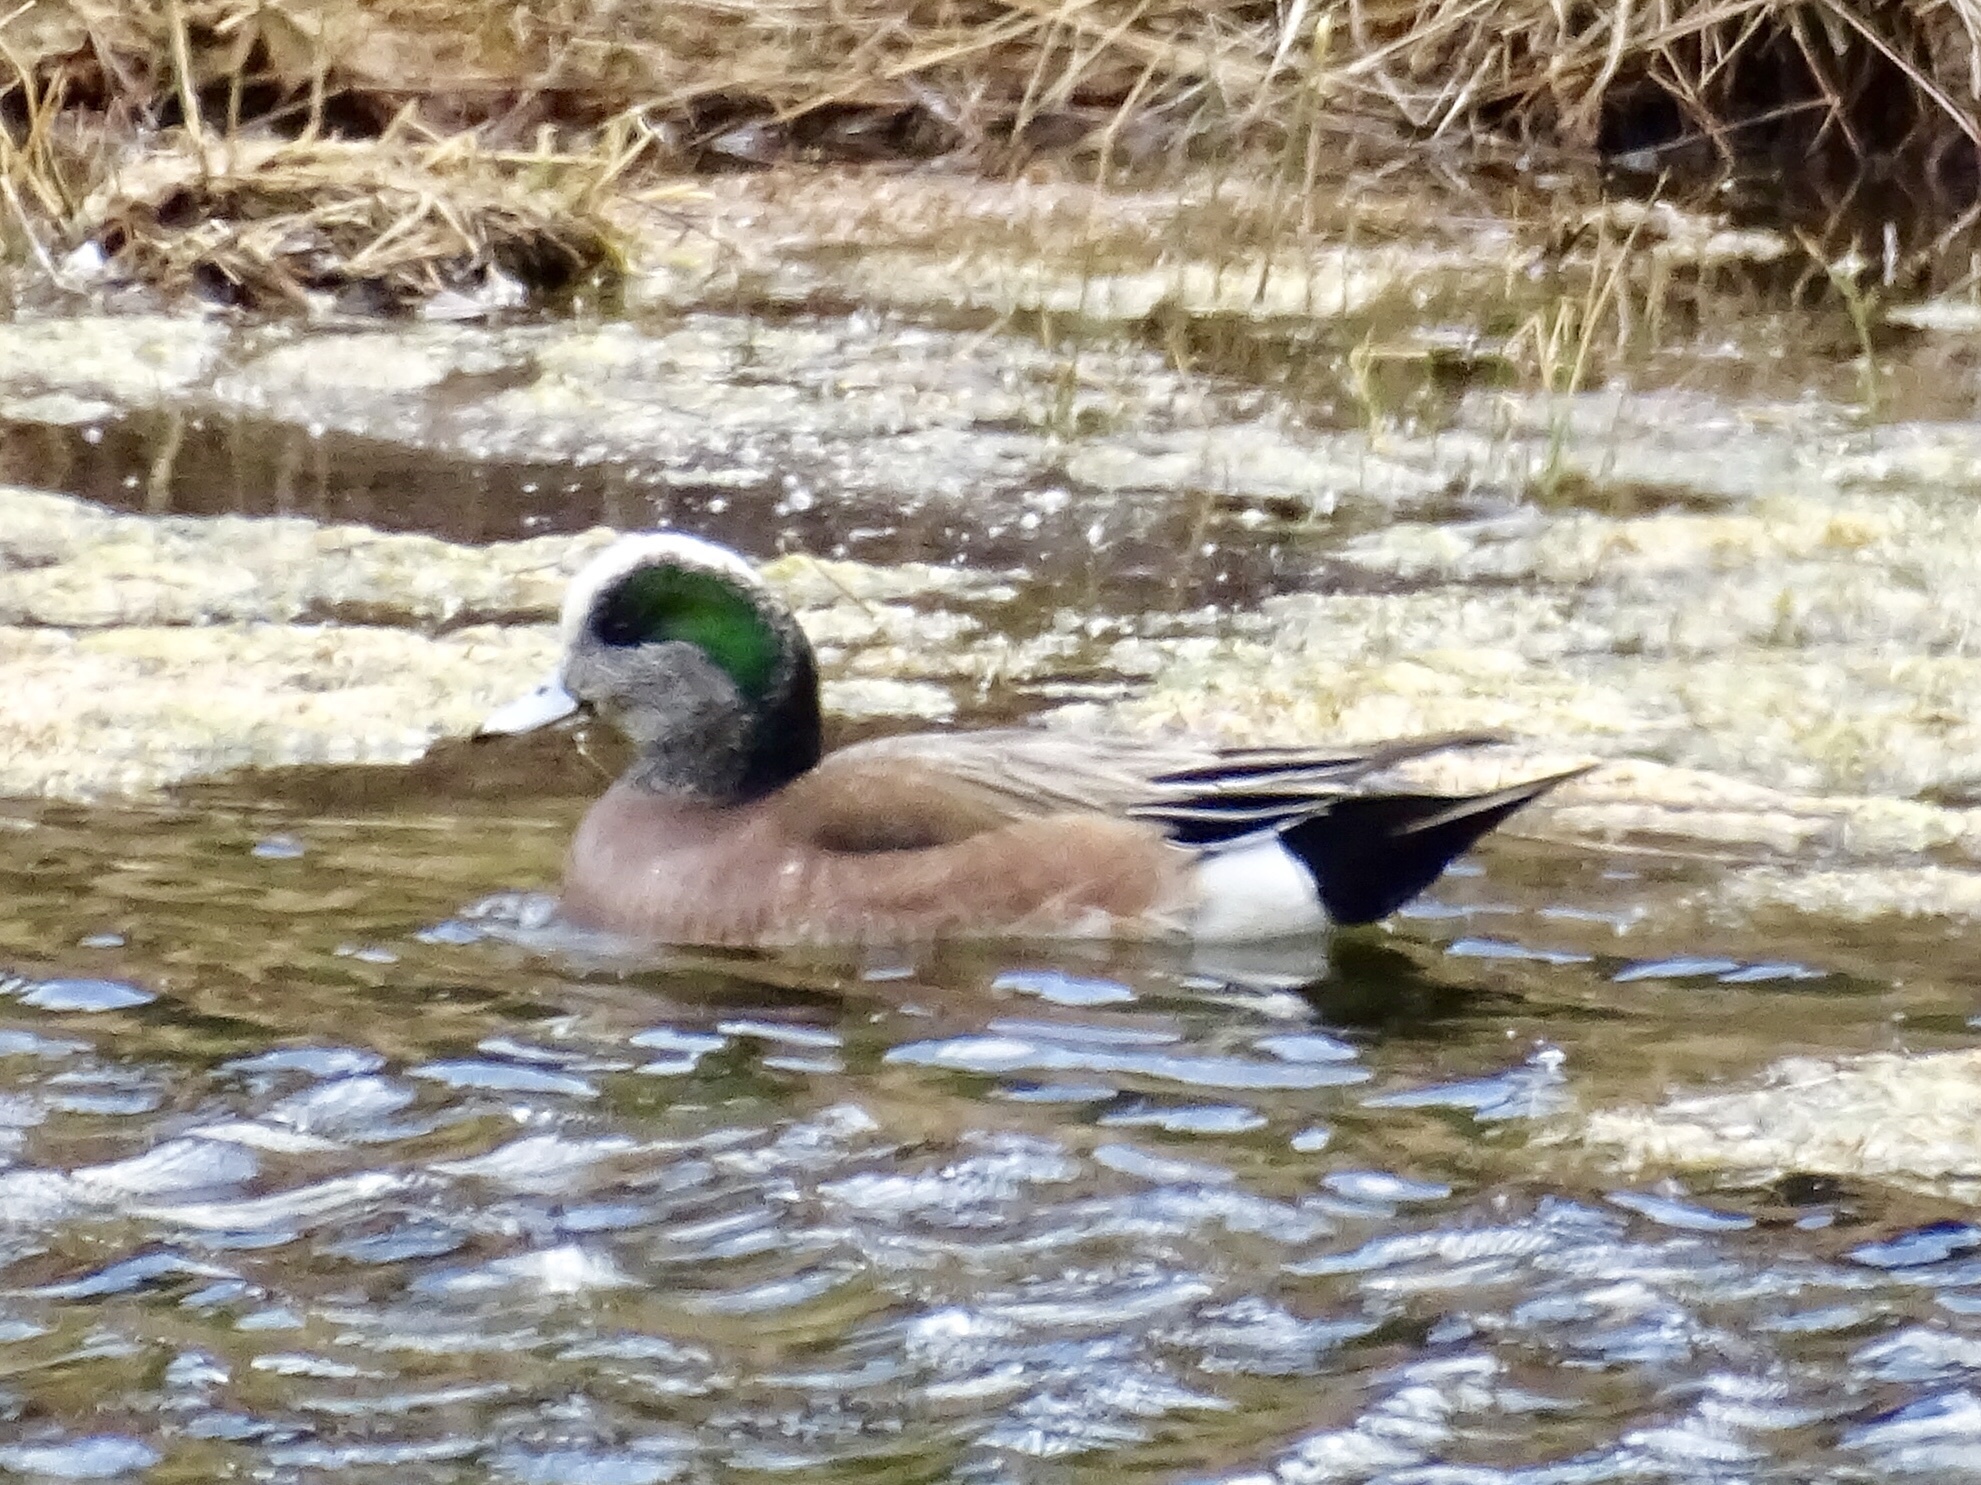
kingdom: Animalia
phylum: Chordata
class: Aves
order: Anseriformes
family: Anatidae
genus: Mareca
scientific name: Mareca americana
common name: American wigeon
